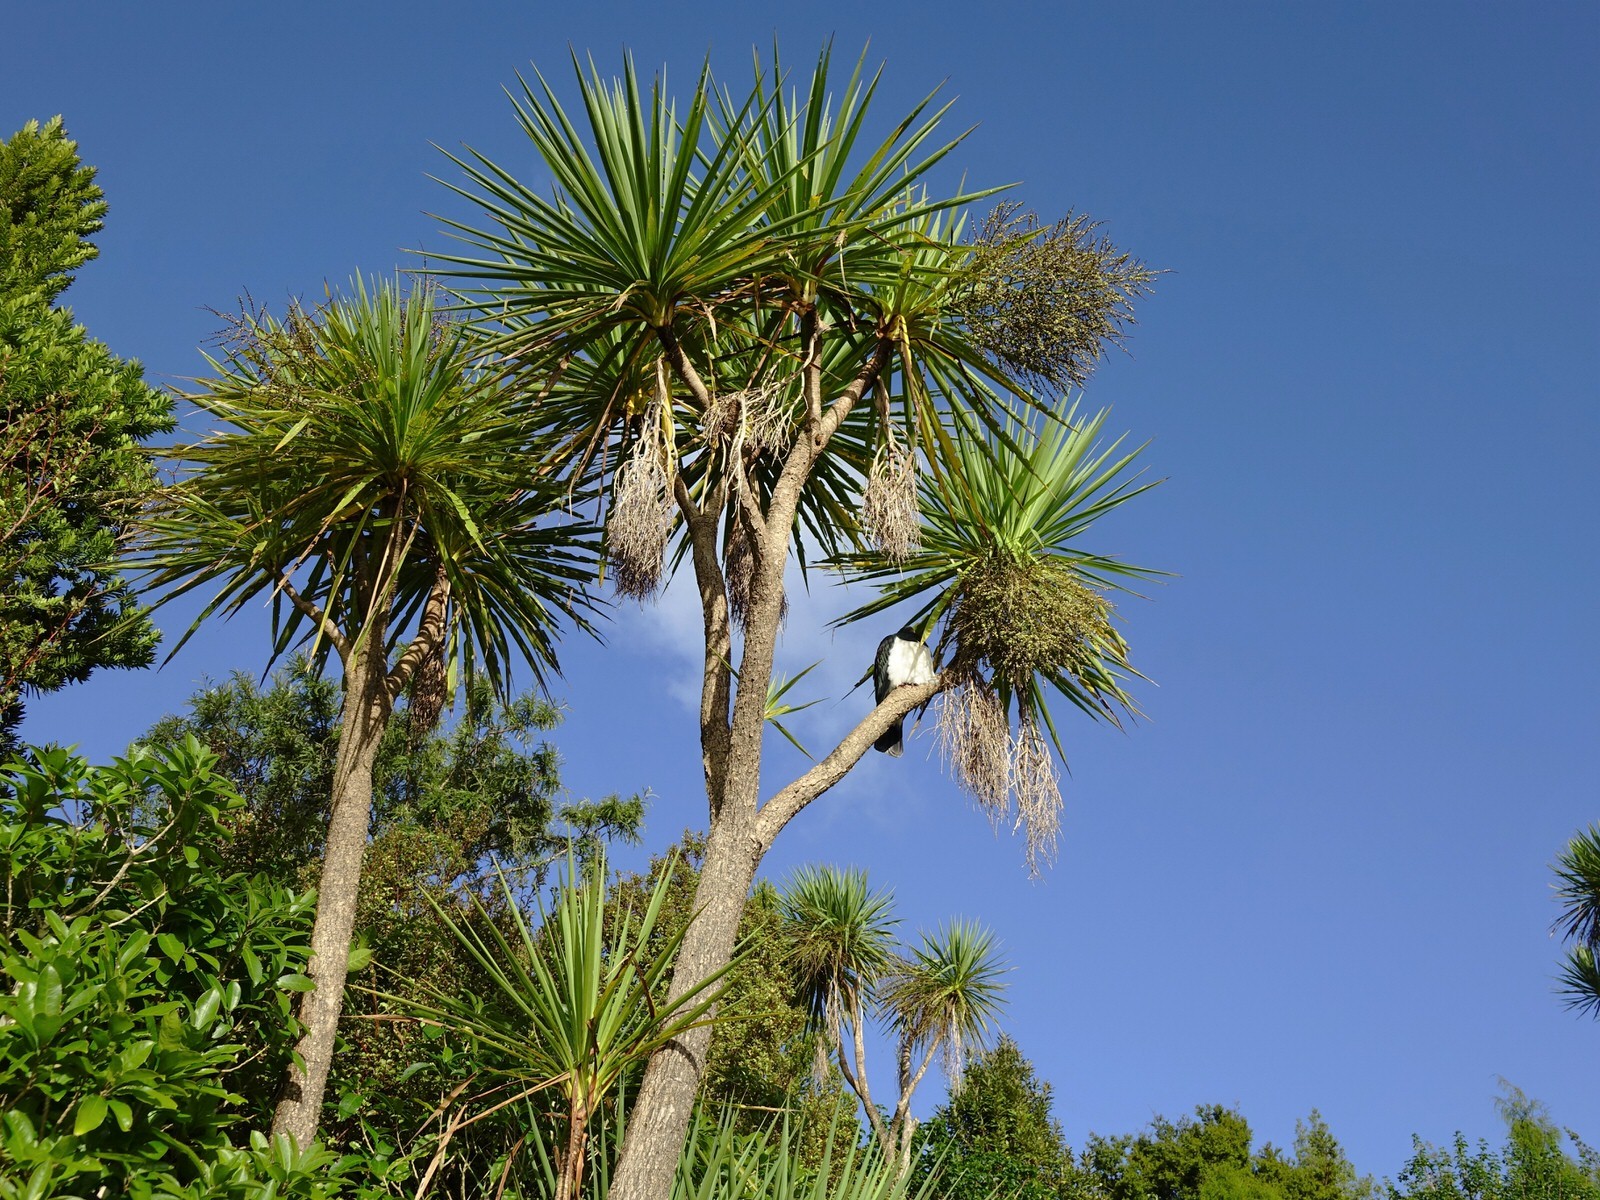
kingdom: Animalia
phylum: Chordata
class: Aves
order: Columbiformes
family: Columbidae
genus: Hemiphaga
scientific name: Hemiphaga novaeseelandiae
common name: New zealand pigeon
